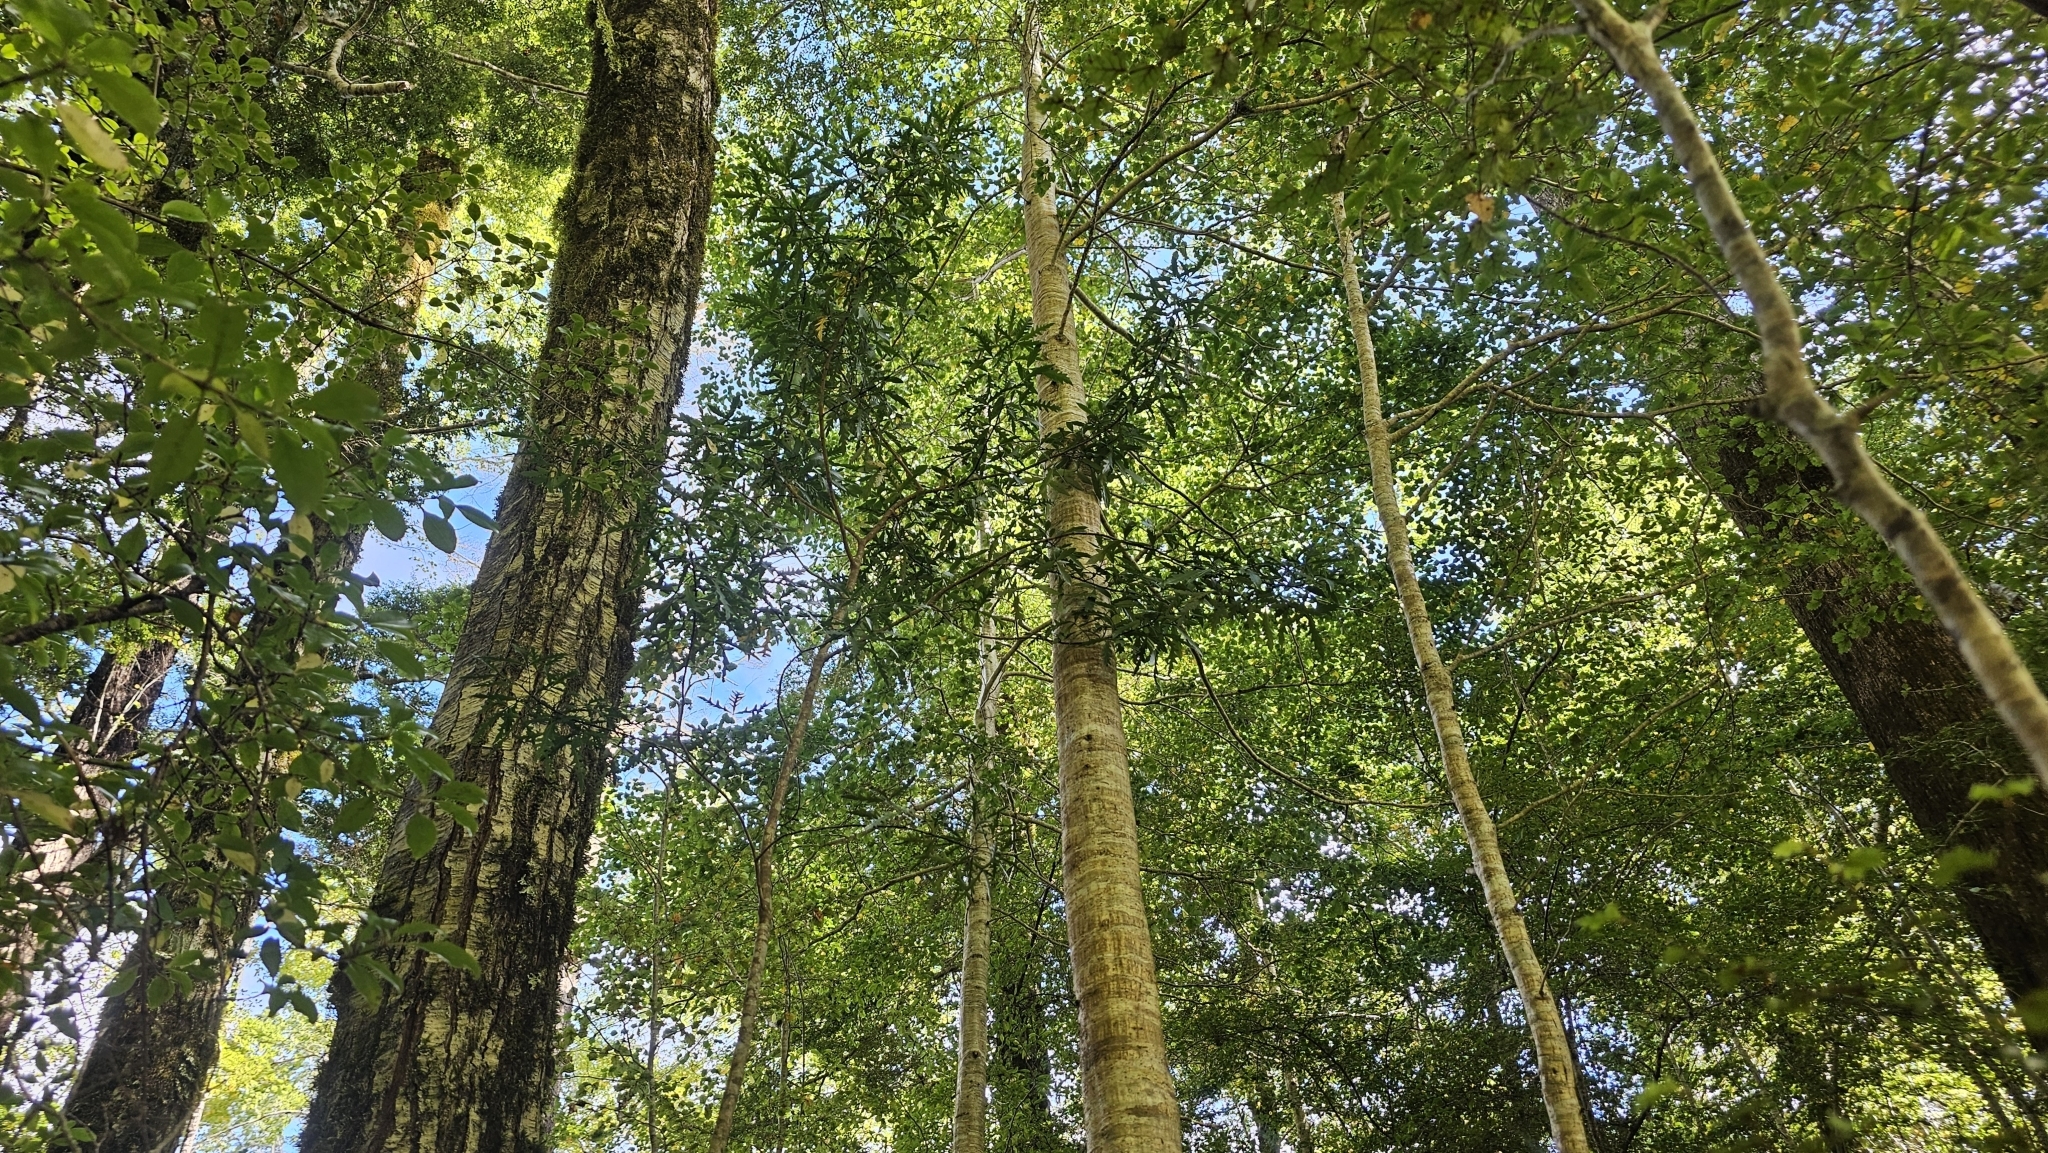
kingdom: Plantae
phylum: Tracheophyta
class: Magnoliopsida
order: Apiales
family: Araliaceae
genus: Raukaua
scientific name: Raukaua simplex
